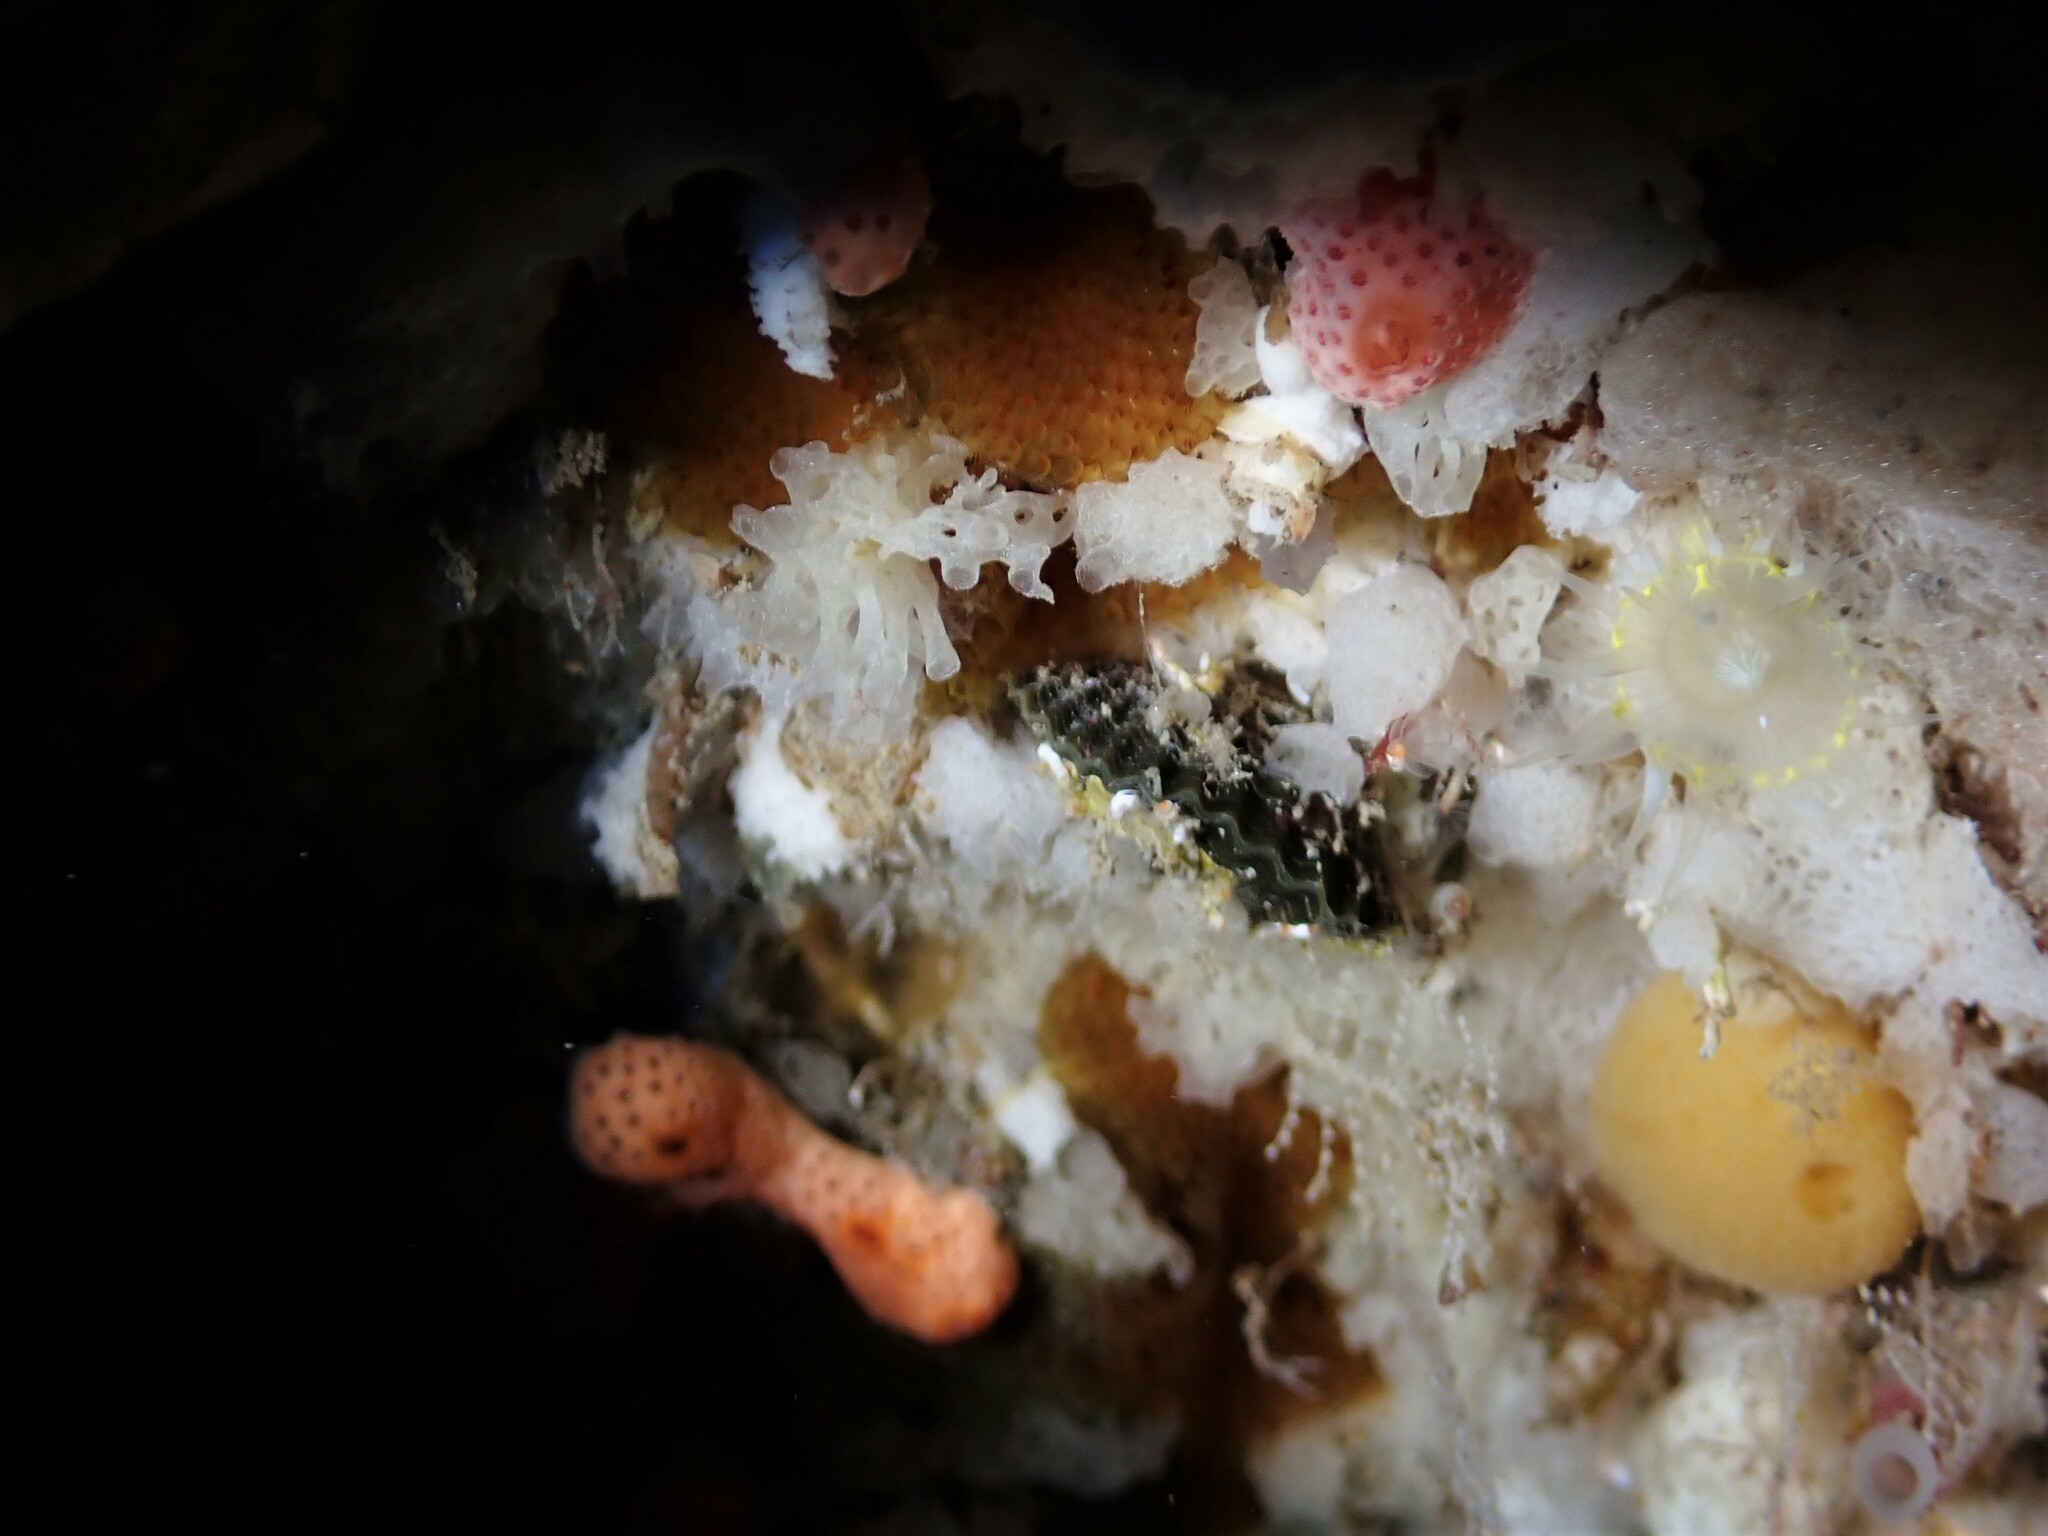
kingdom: Animalia
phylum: Brachiopoda
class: Rhynchonellata
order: Rhynchonellida
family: Notosariidae
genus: Notosaria
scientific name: Notosaria nigricans
